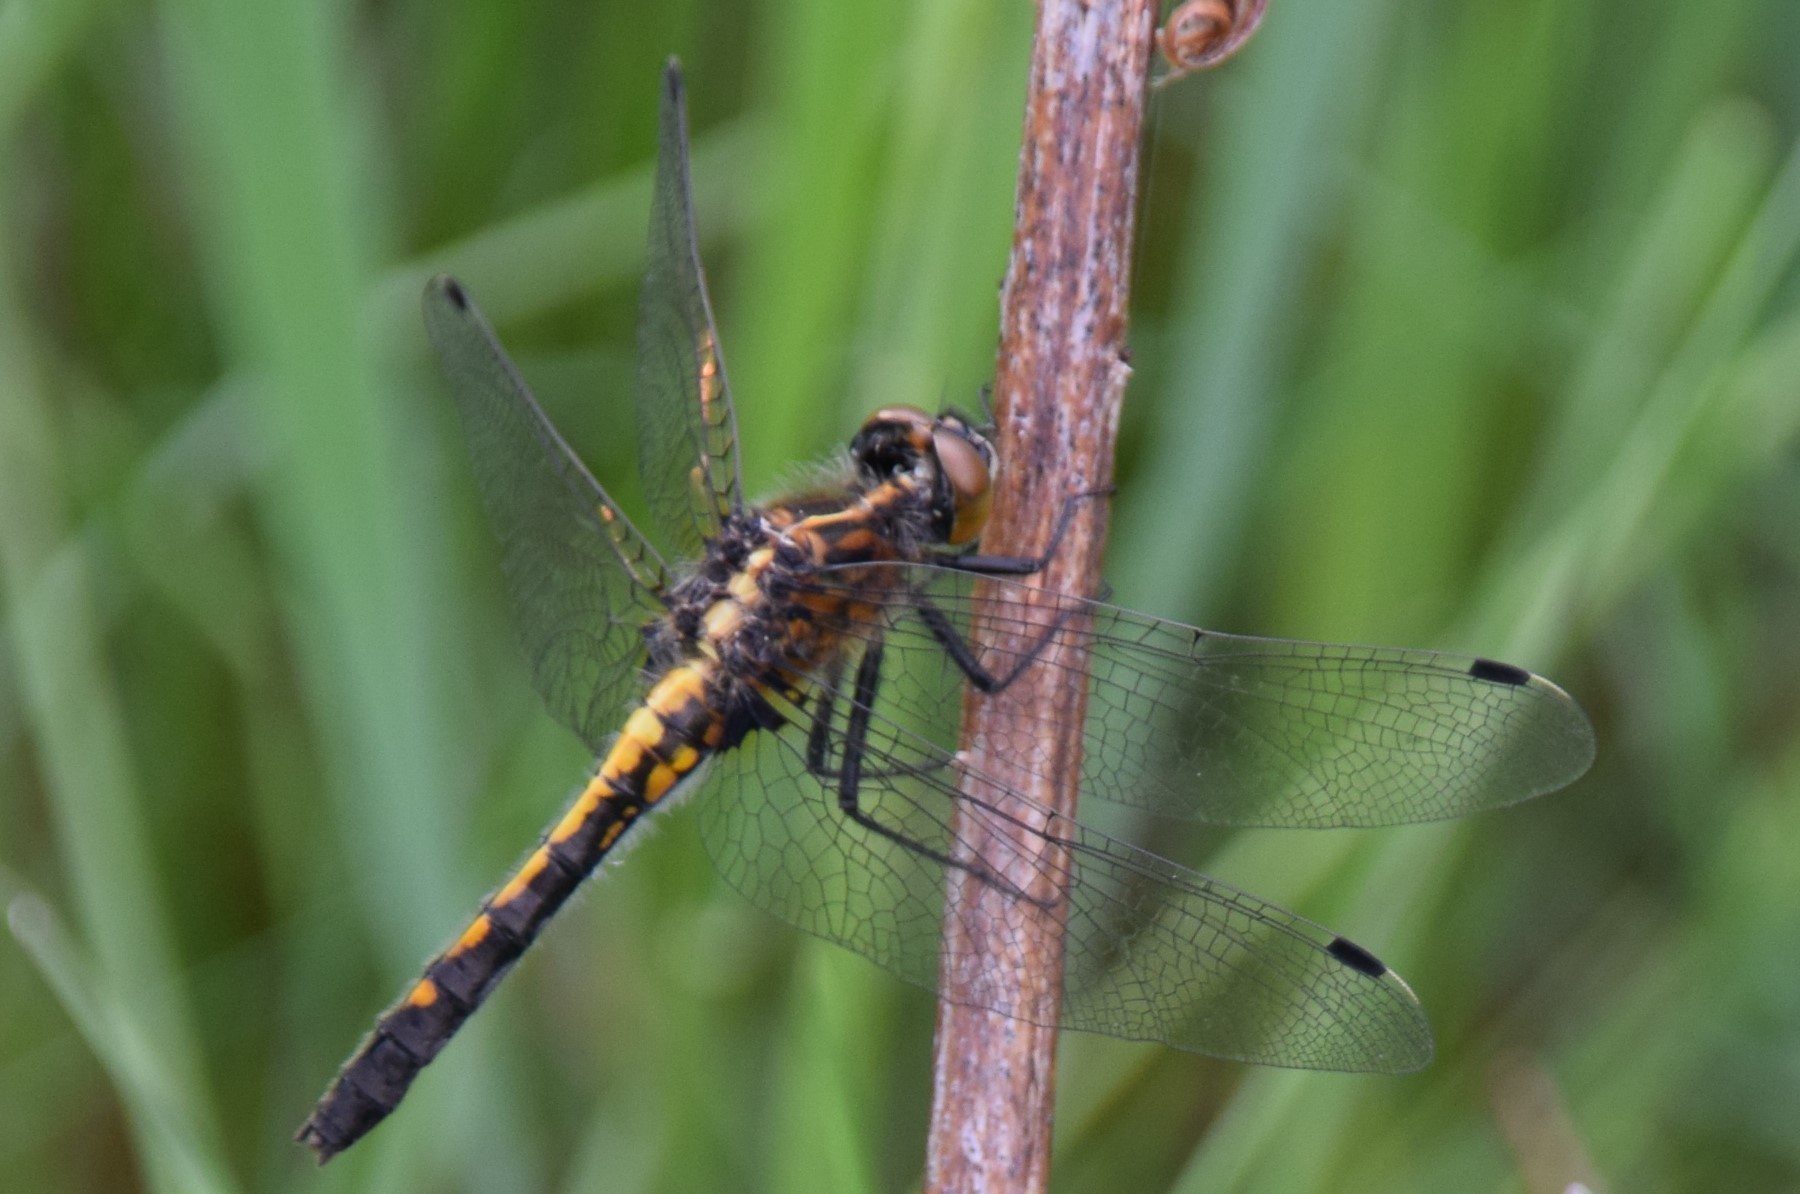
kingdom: Animalia
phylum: Arthropoda
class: Insecta
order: Odonata
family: Libellulidae
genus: Leucorrhinia
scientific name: Leucorrhinia intacta
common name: Dot-tailed whiteface
